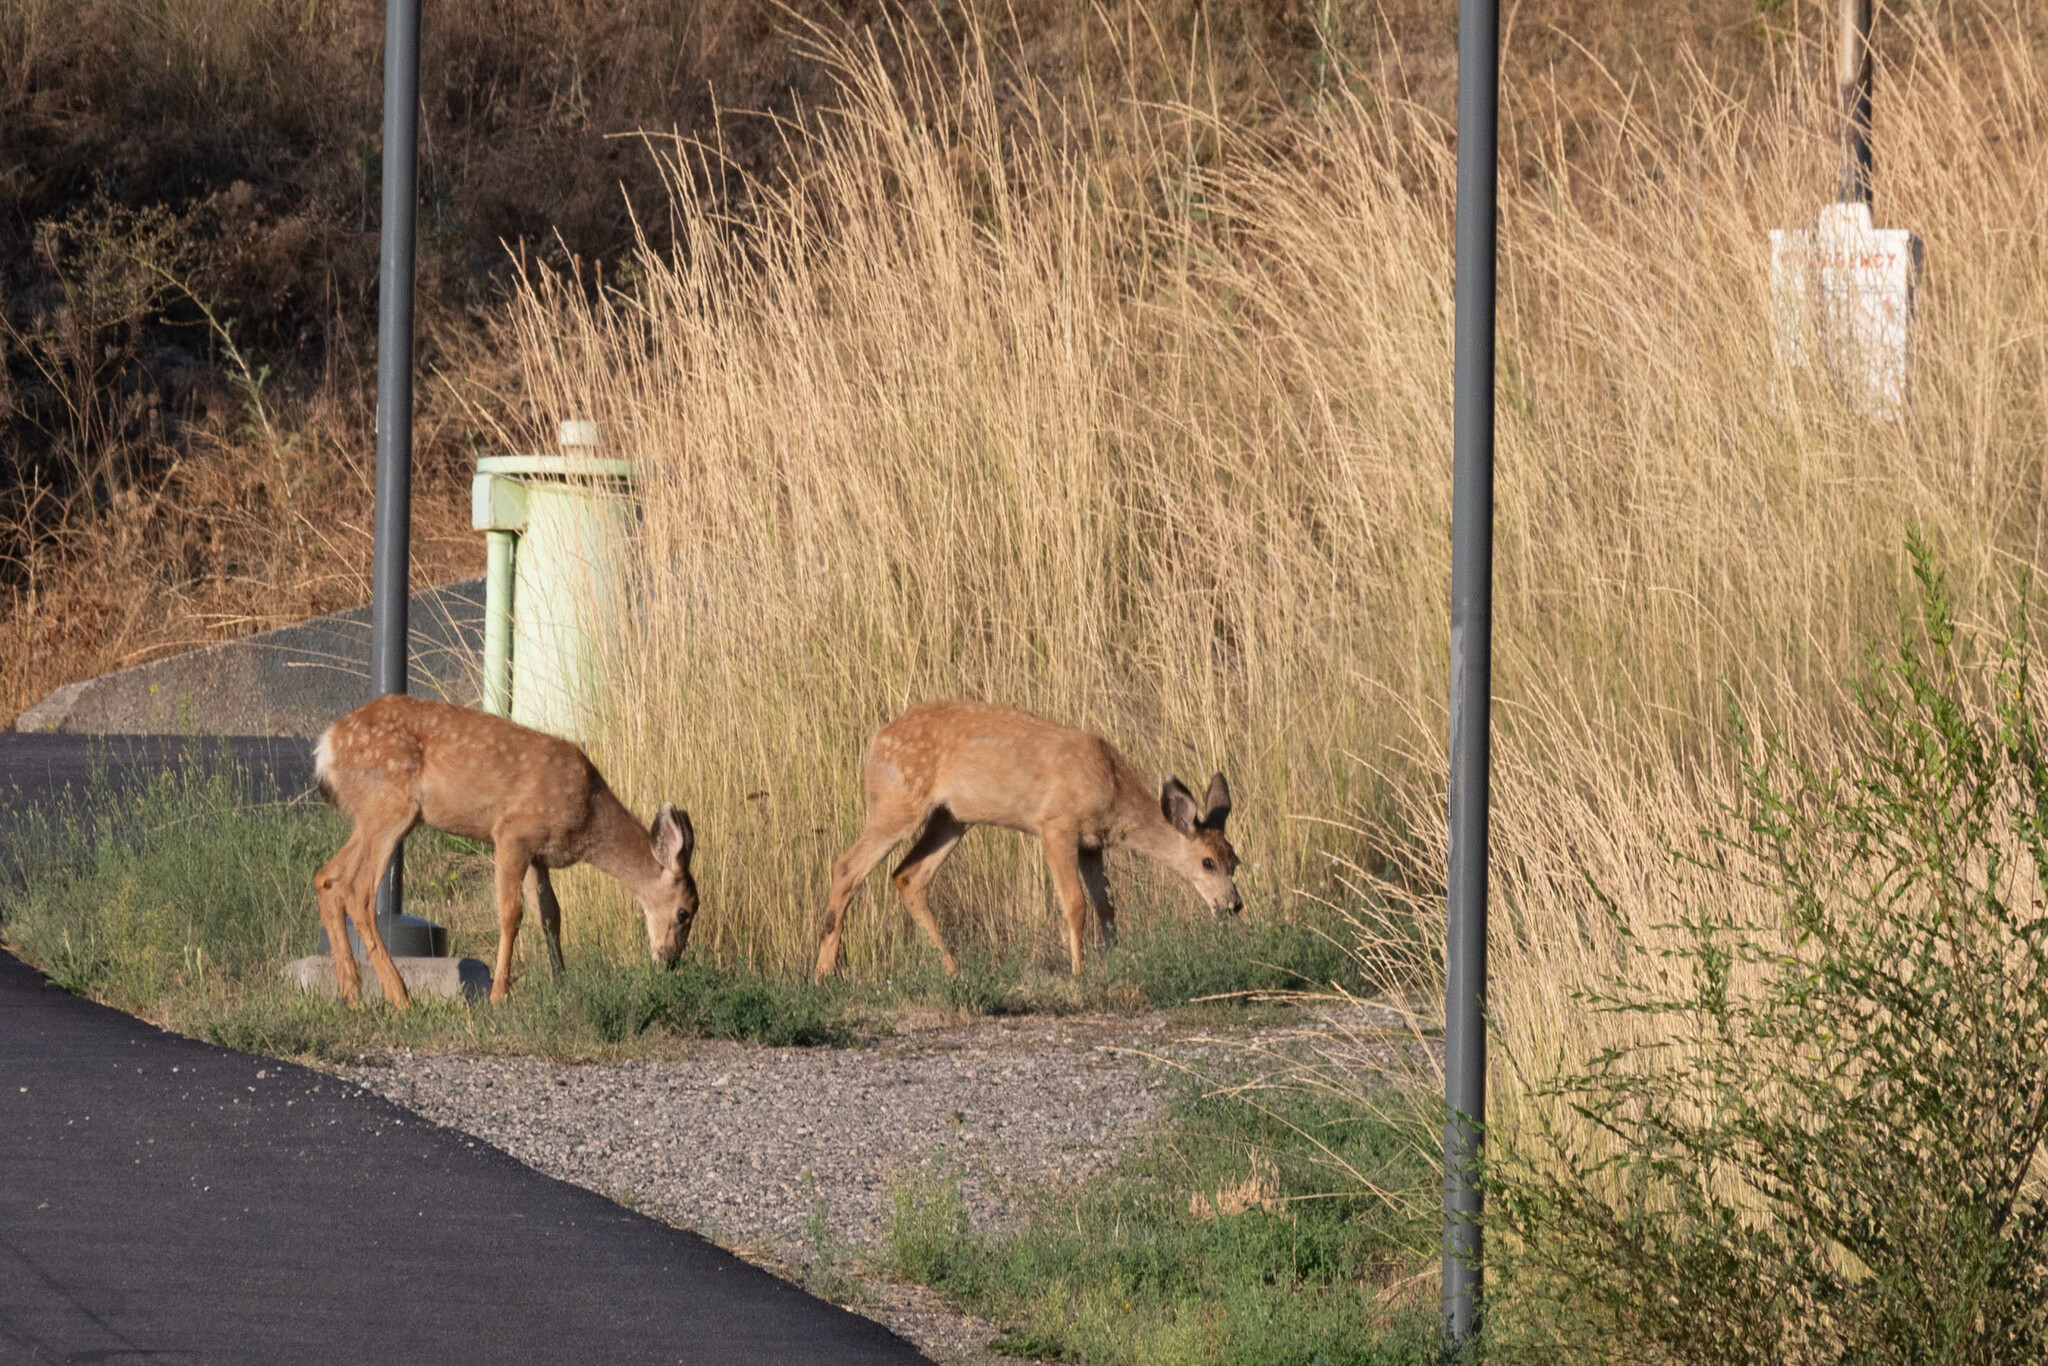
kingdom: Animalia
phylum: Chordata
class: Mammalia
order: Artiodactyla
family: Cervidae
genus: Odocoileus
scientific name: Odocoileus hemionus
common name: Mule deer
